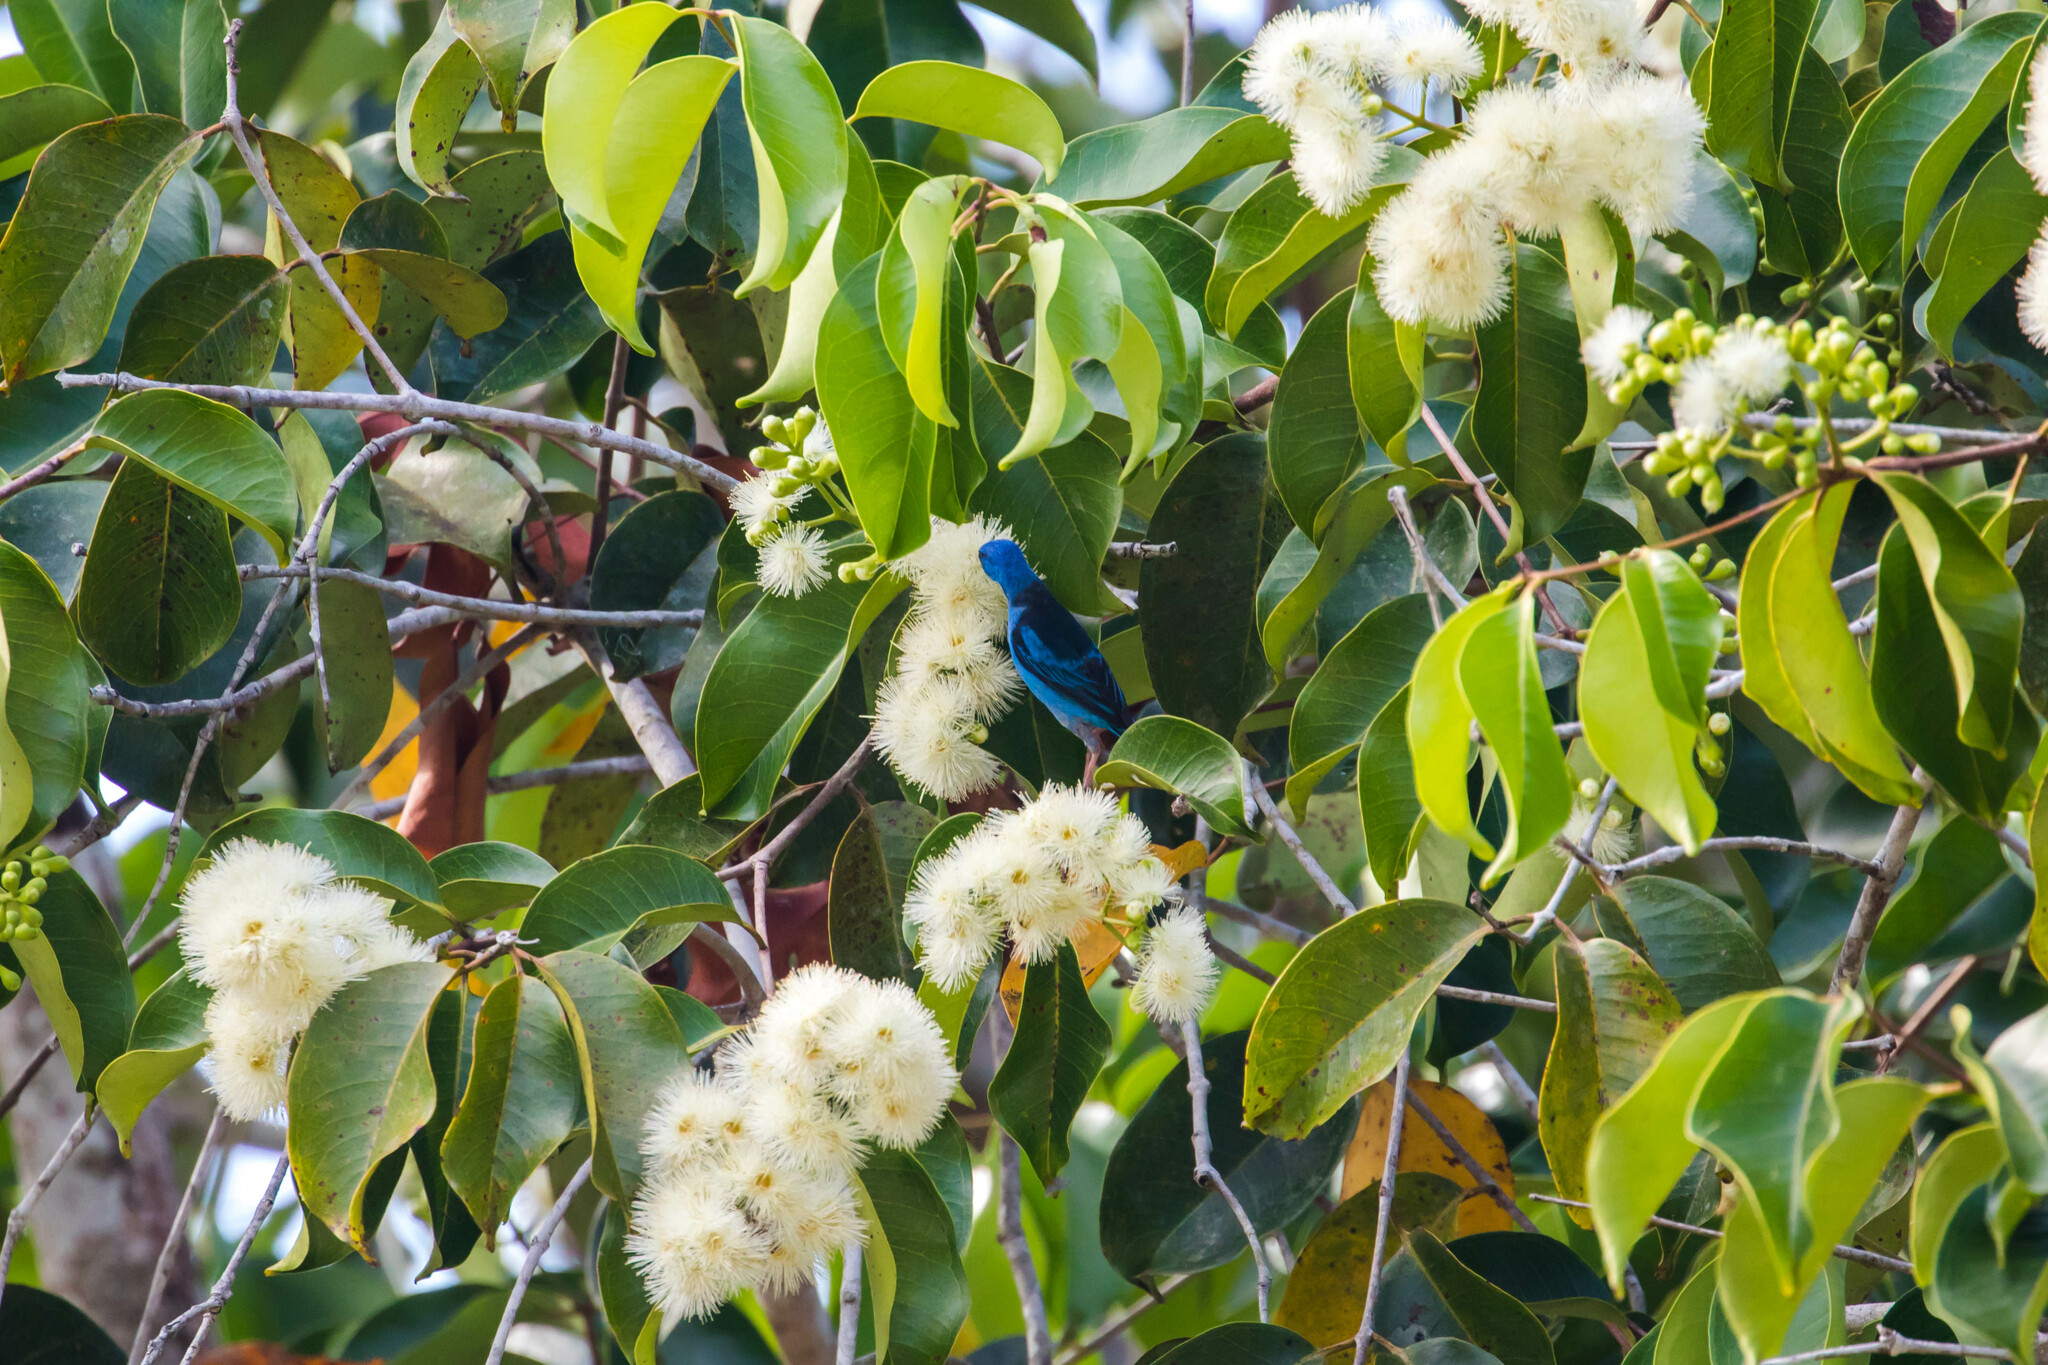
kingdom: Animalia
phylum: Chordata
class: Aves
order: Passeriformes
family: Thraupidae
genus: Dacnis
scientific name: Dacnis cayana
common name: Blue dacnis
